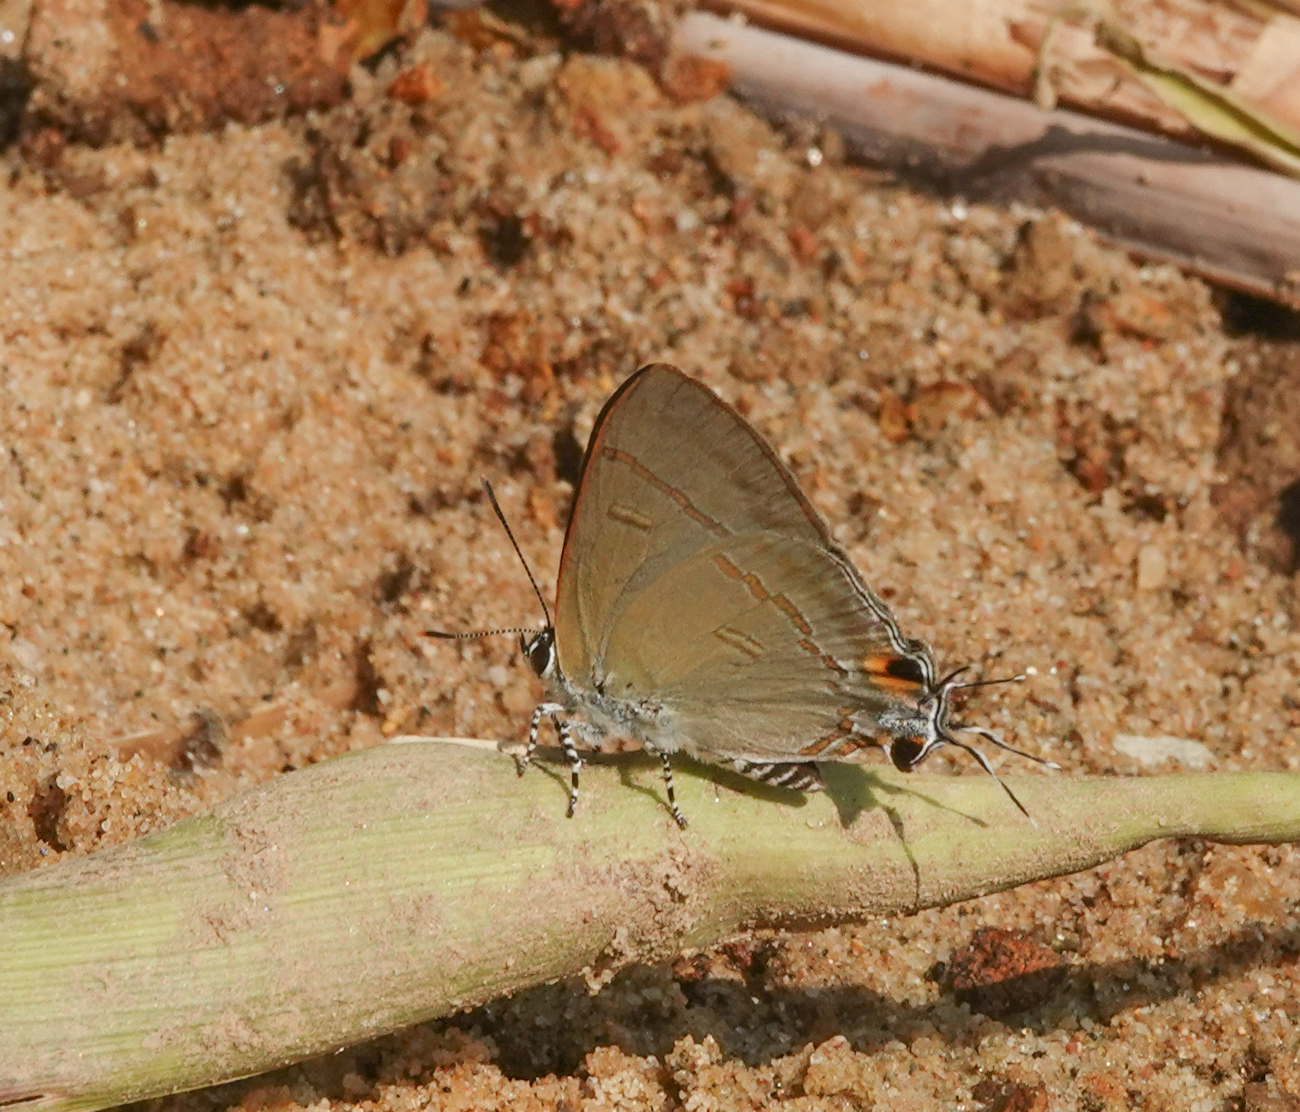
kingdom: Animalia
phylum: Arthropoda
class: Insecta
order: Lepidoptera
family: Lycaenidae
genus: Hypolycaena
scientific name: Hypolycaena erylus
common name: Common tit
